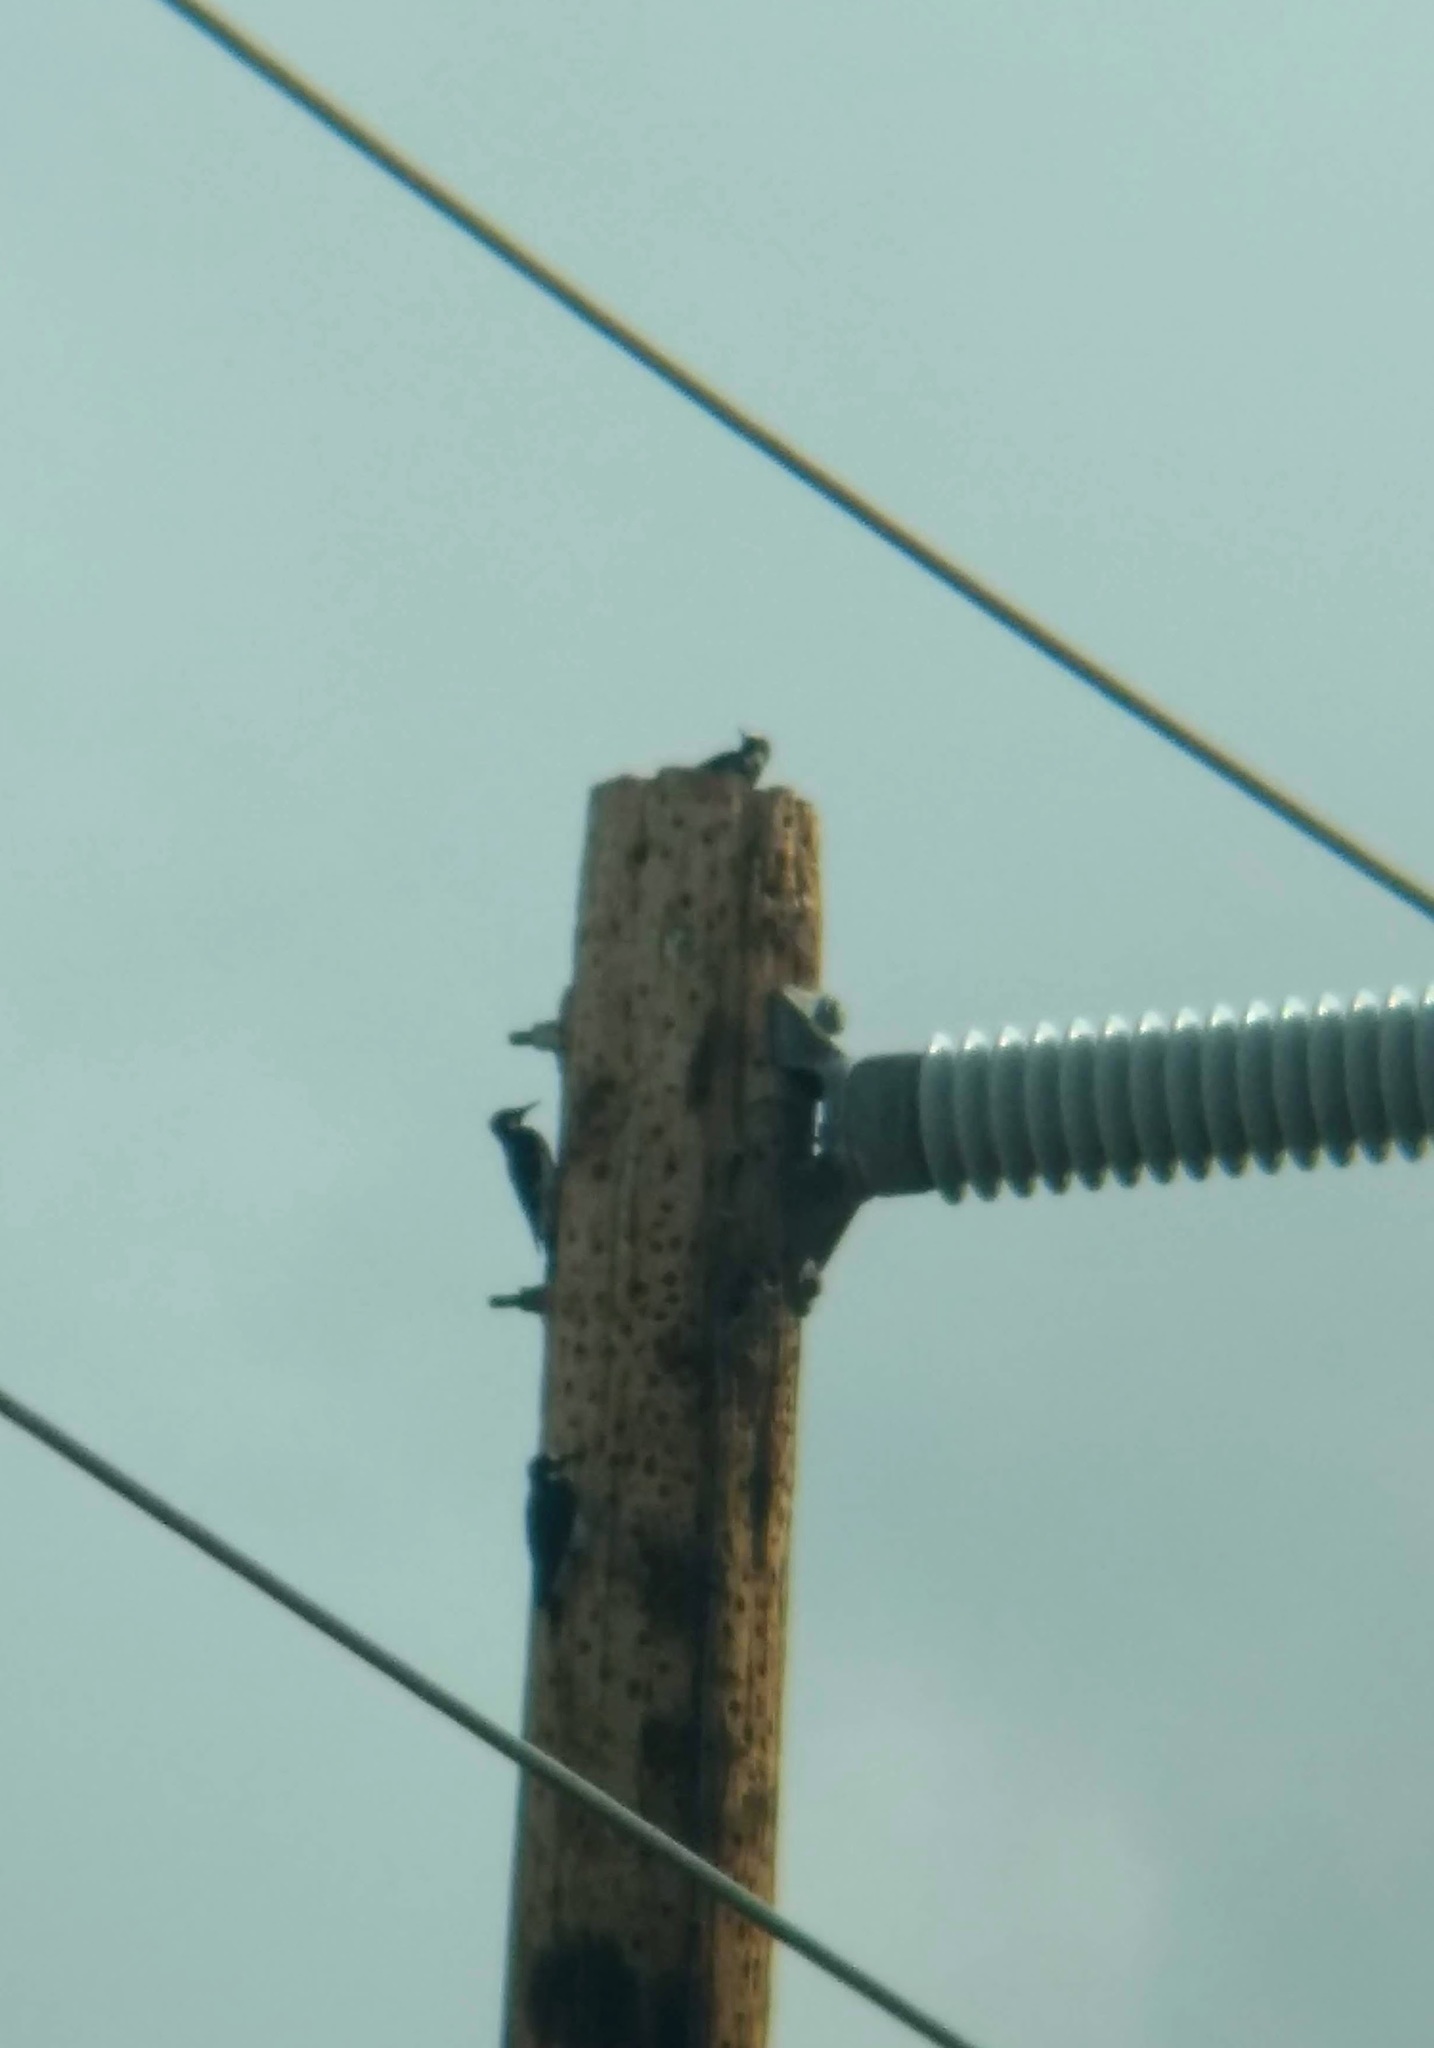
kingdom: Animalia
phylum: Chordata
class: Aves
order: Piciformes
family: Picidae
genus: Melanerpes
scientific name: Melanerpes formicivorus
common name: Acorn woodpecker
